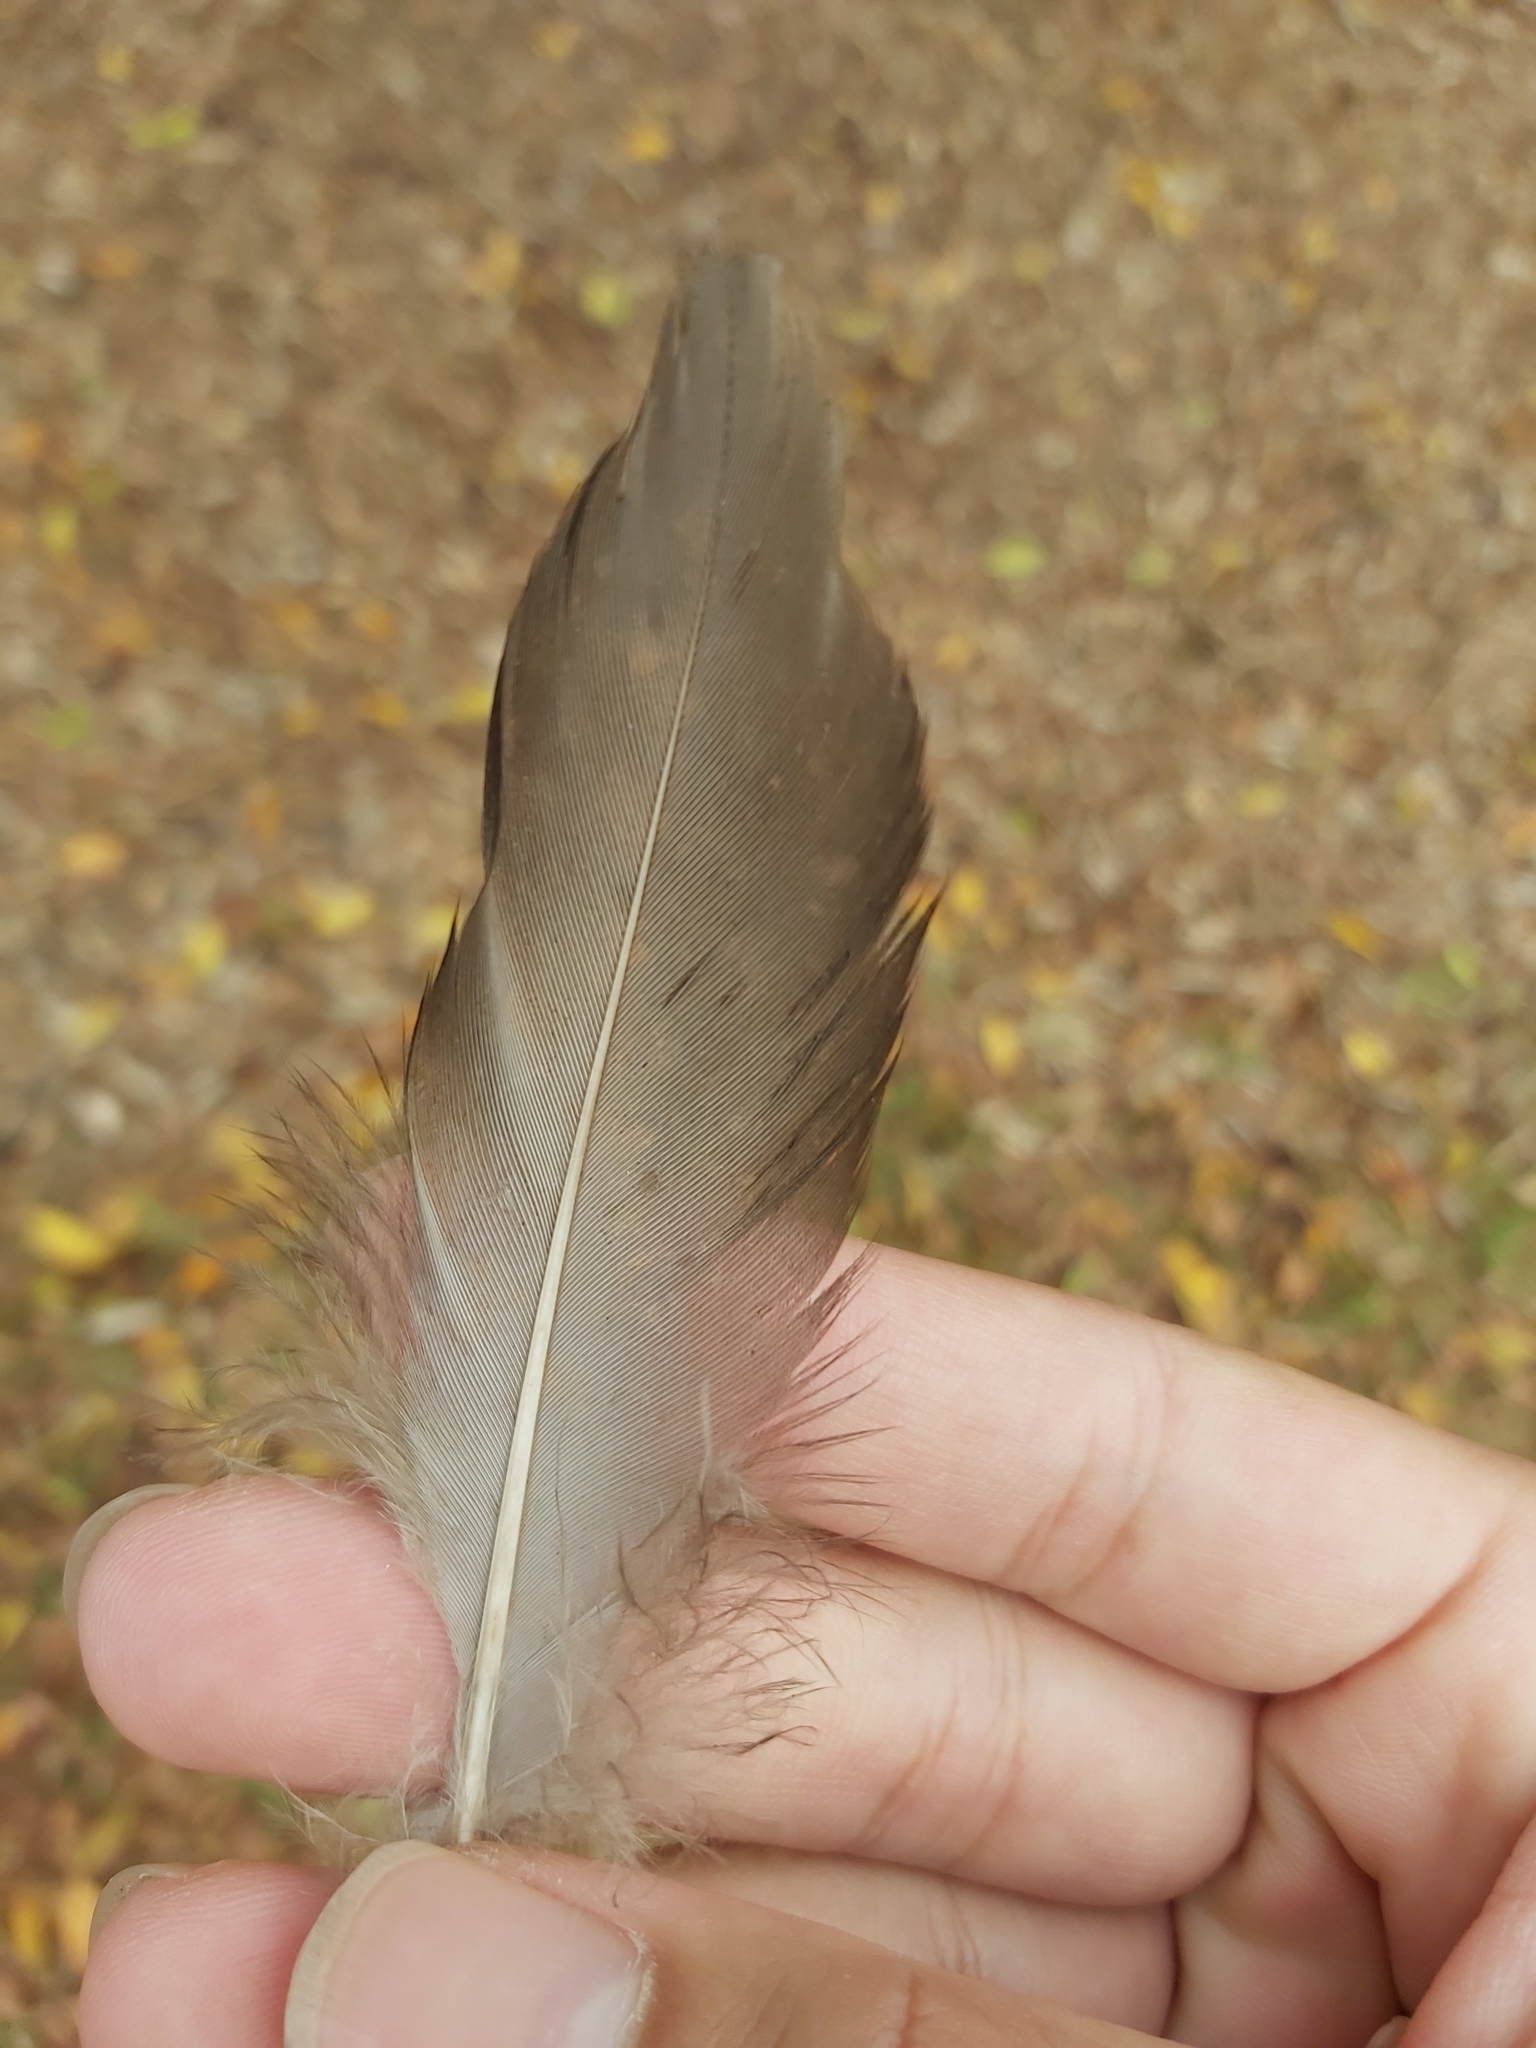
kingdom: Animalia
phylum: Chordata
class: Aves
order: Anseriformes
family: Anatidae
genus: Chenonetta
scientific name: Chenonetta jubata
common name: Maned duck
